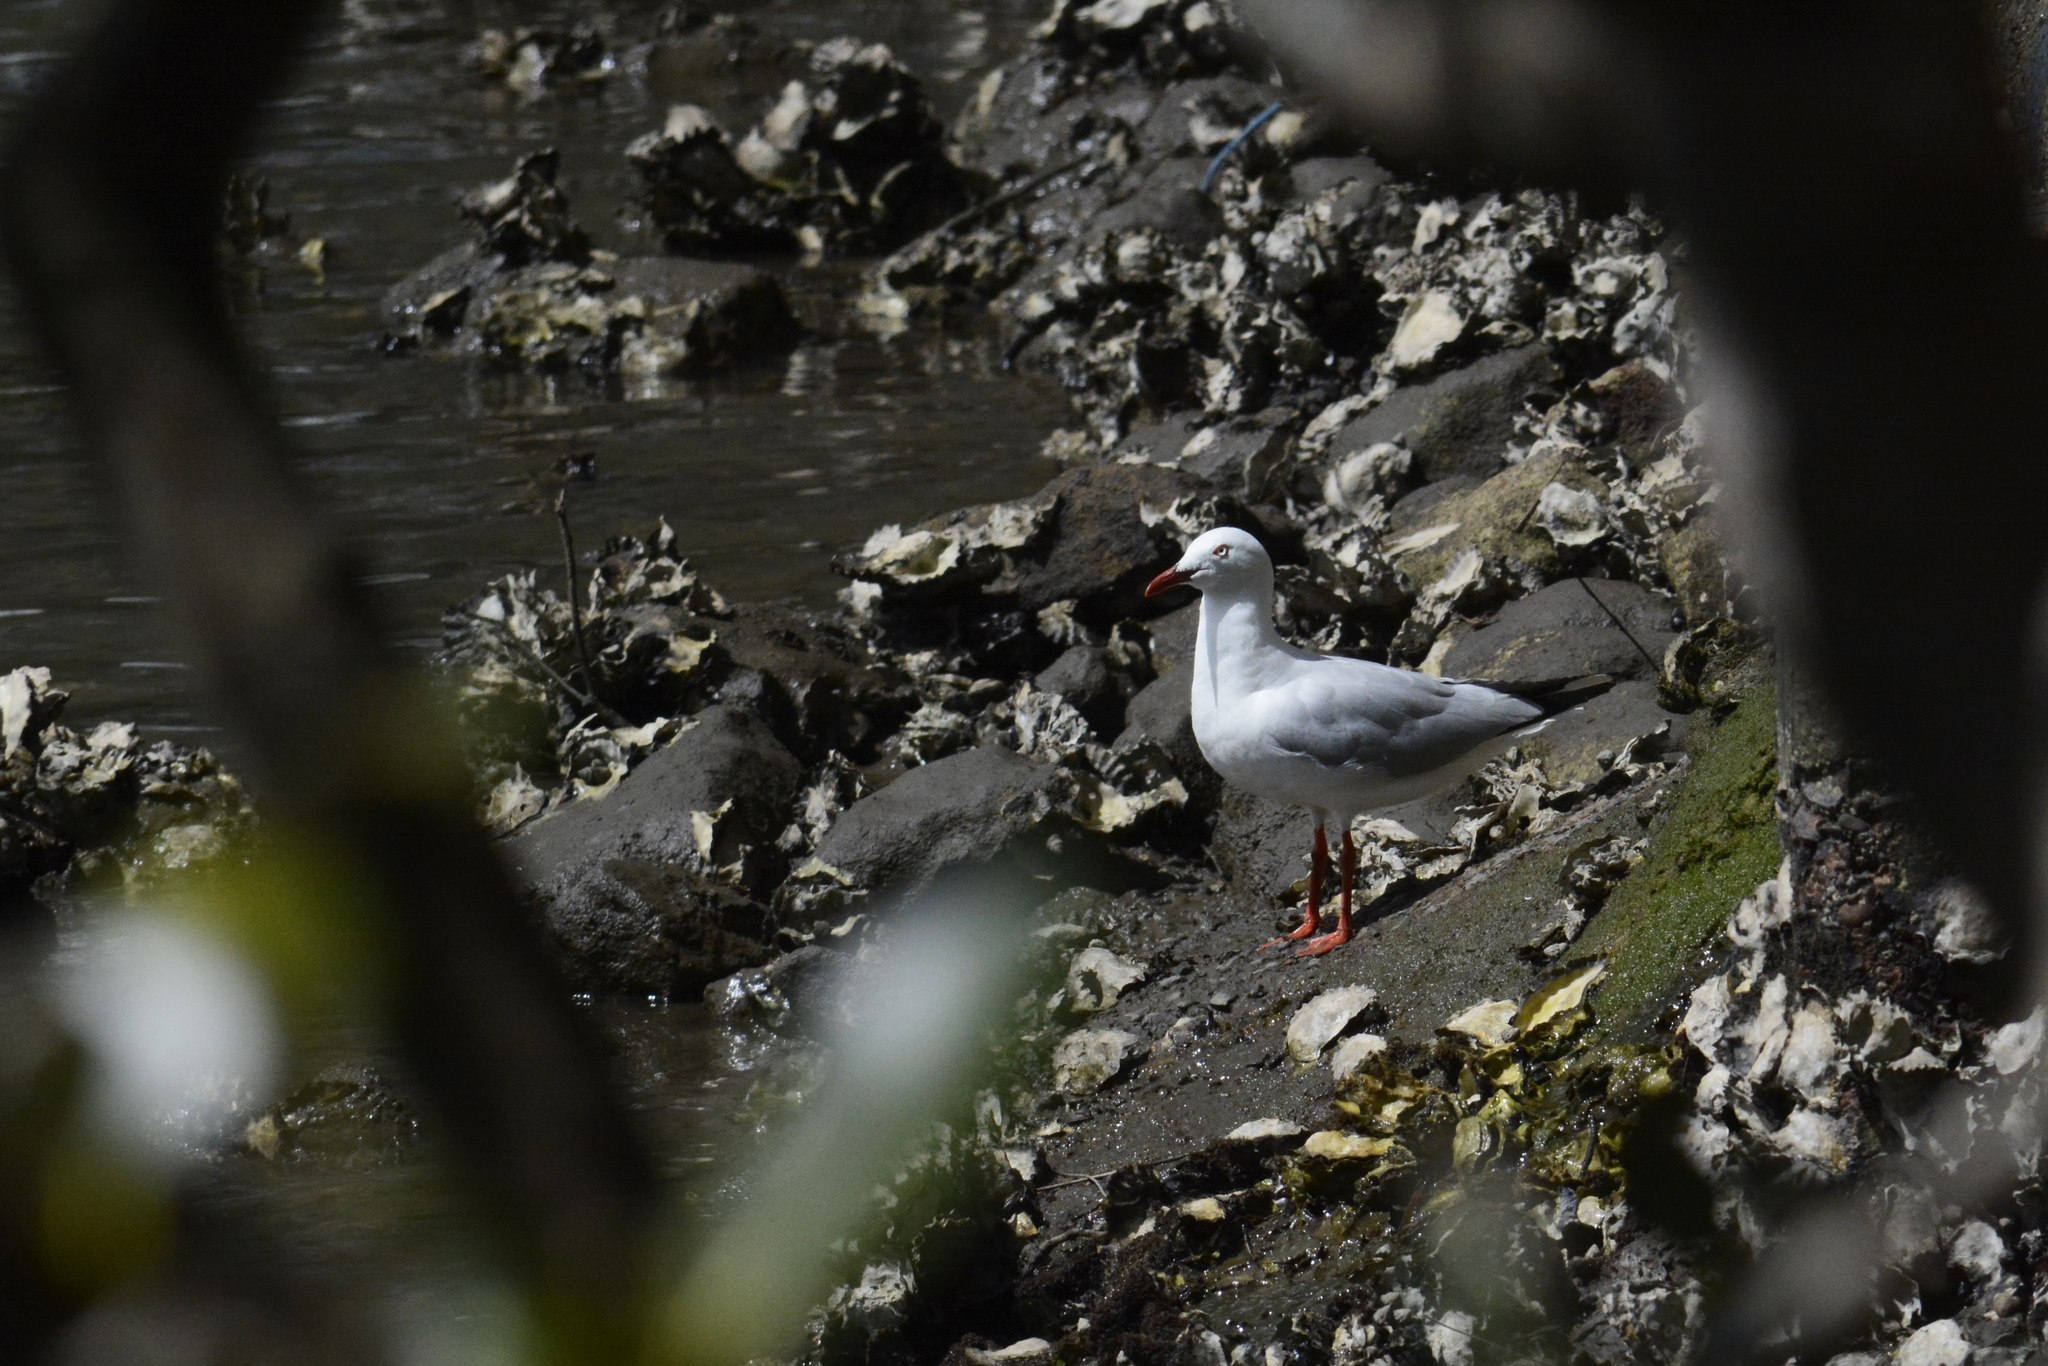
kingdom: Animalia
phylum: Chordata
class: Aves
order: Charadriiformes
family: Laridae
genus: Chroicocephalus
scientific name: Chroicocephalus novaehollandiae
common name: Silver gull
